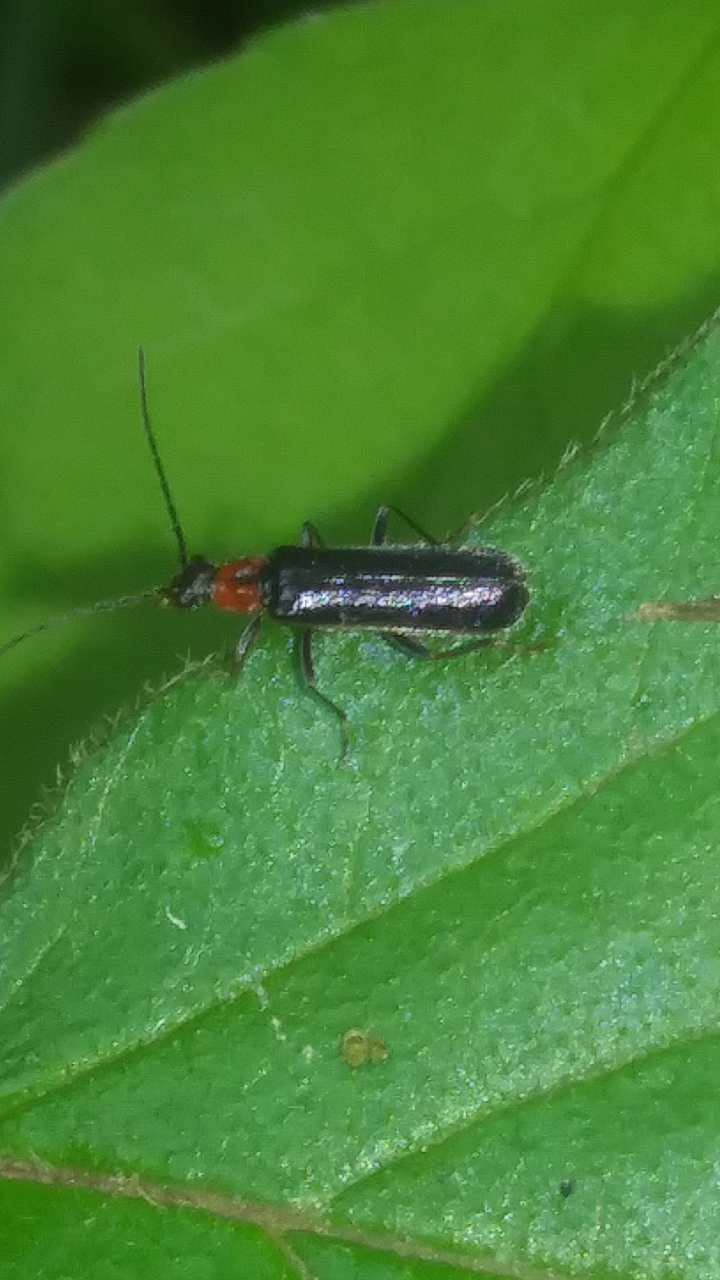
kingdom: Animalia
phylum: Arthropoda
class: Insecta
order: Coleoptera
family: Cantharidae
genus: Rhagonycha
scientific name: Rhagonycha excavata
